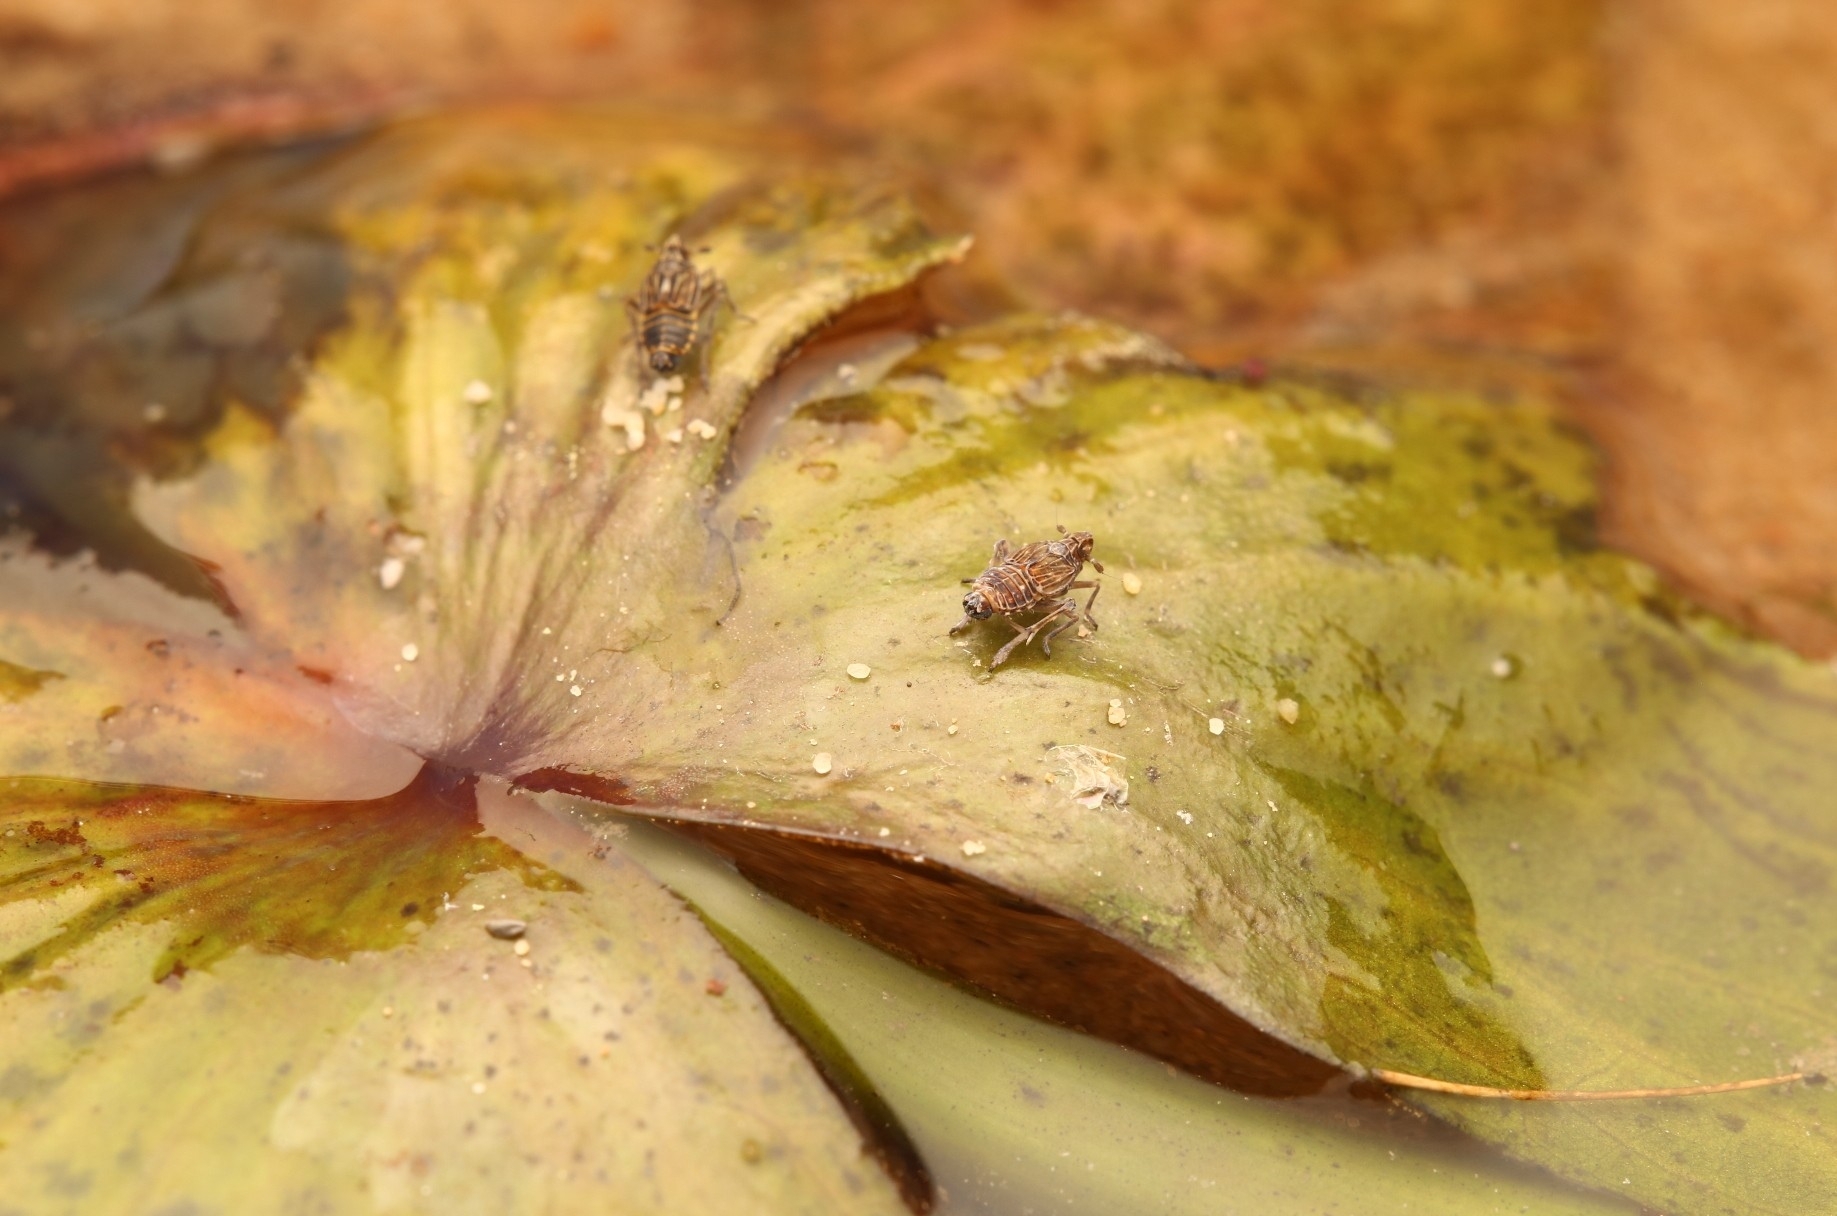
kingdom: Animalia
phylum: Arthropoda
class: Insecta
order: Hemiptera
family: Delphacidae
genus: Megamelus
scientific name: Megamelus davisi
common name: Planthopper
